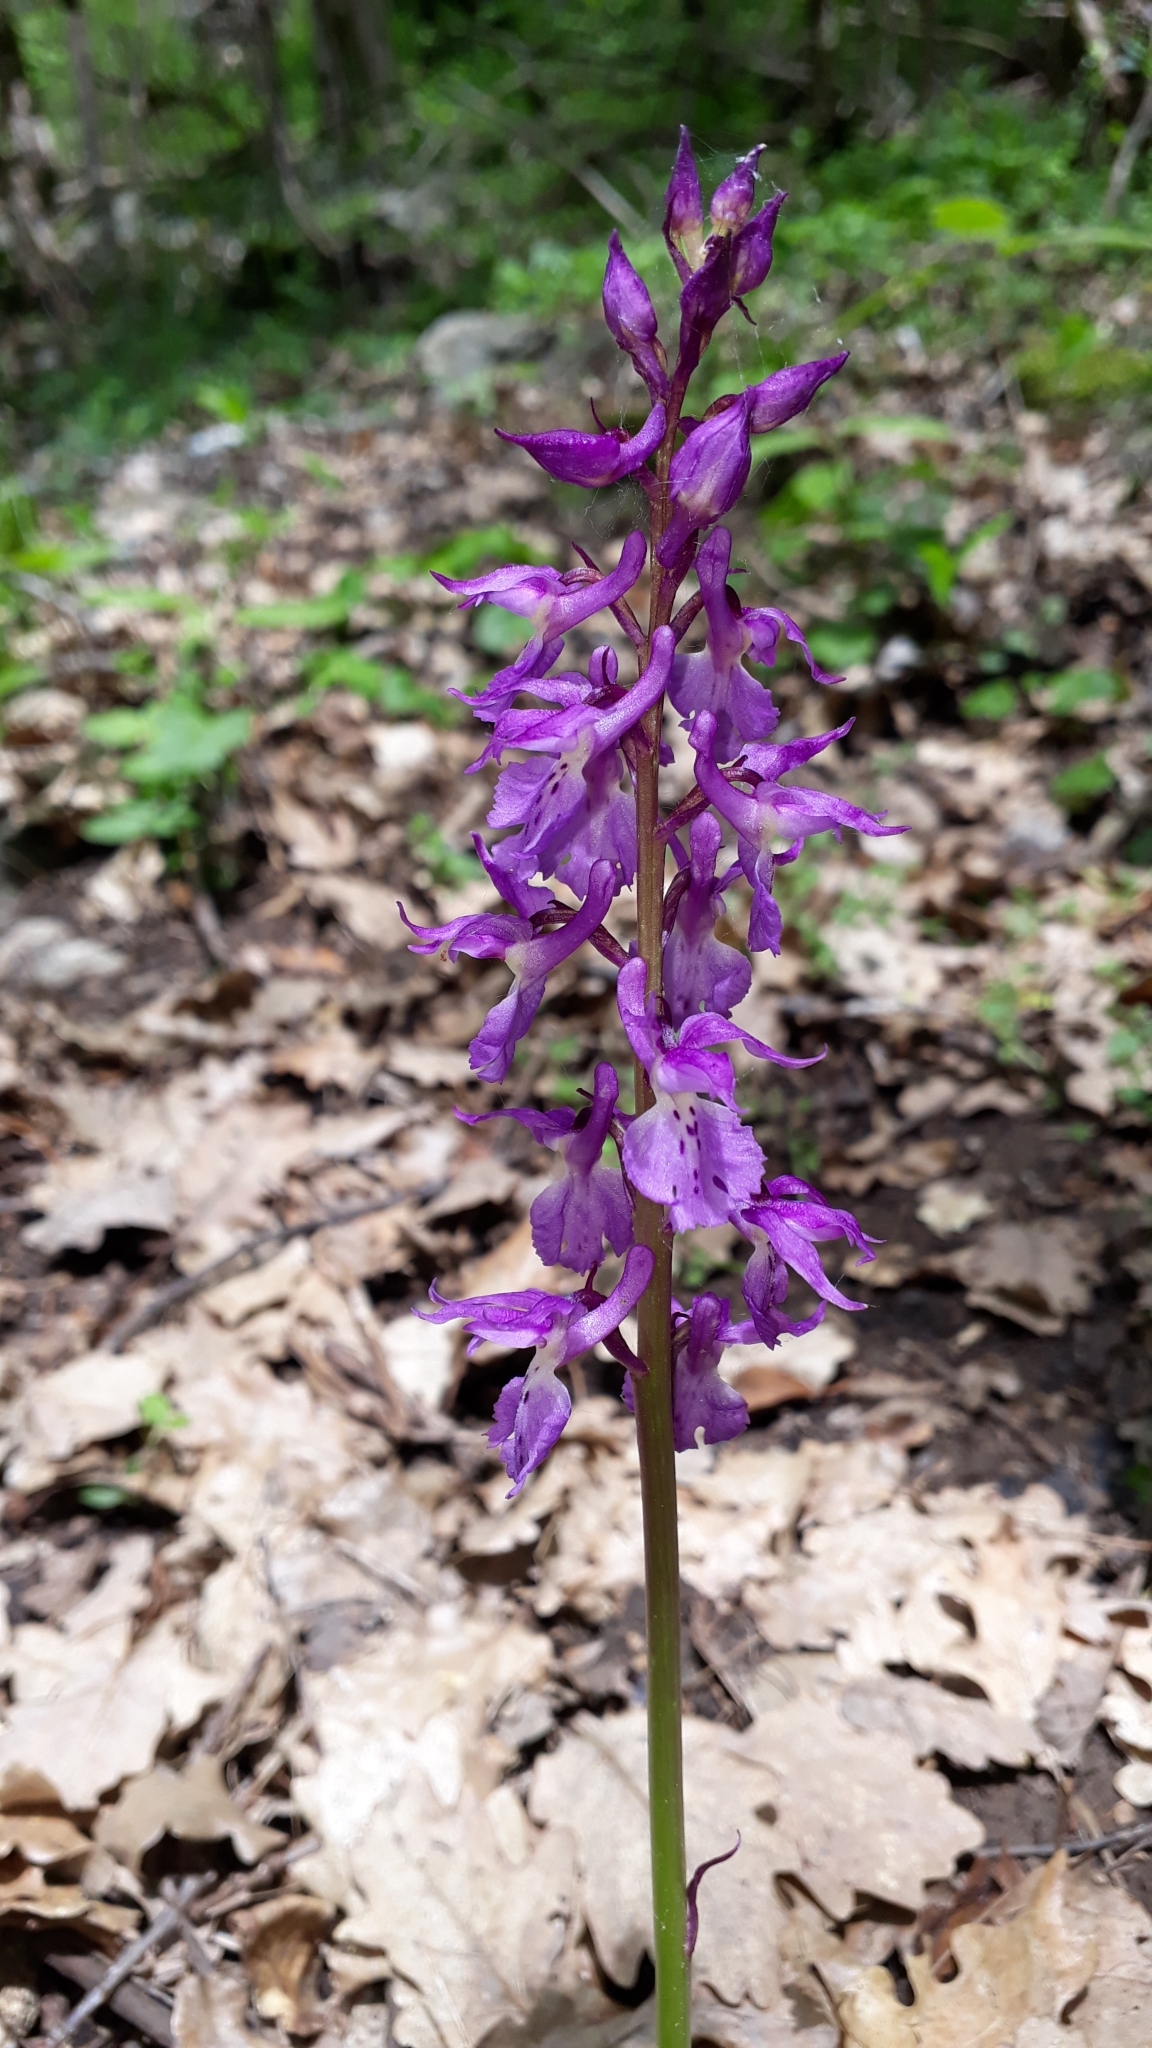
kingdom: Plantae
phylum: Tracheophyta
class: Liliopsida
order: Asparagales
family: Orchidaceae
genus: Orchis
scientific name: Orchis mascula
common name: Early-purple orchid
